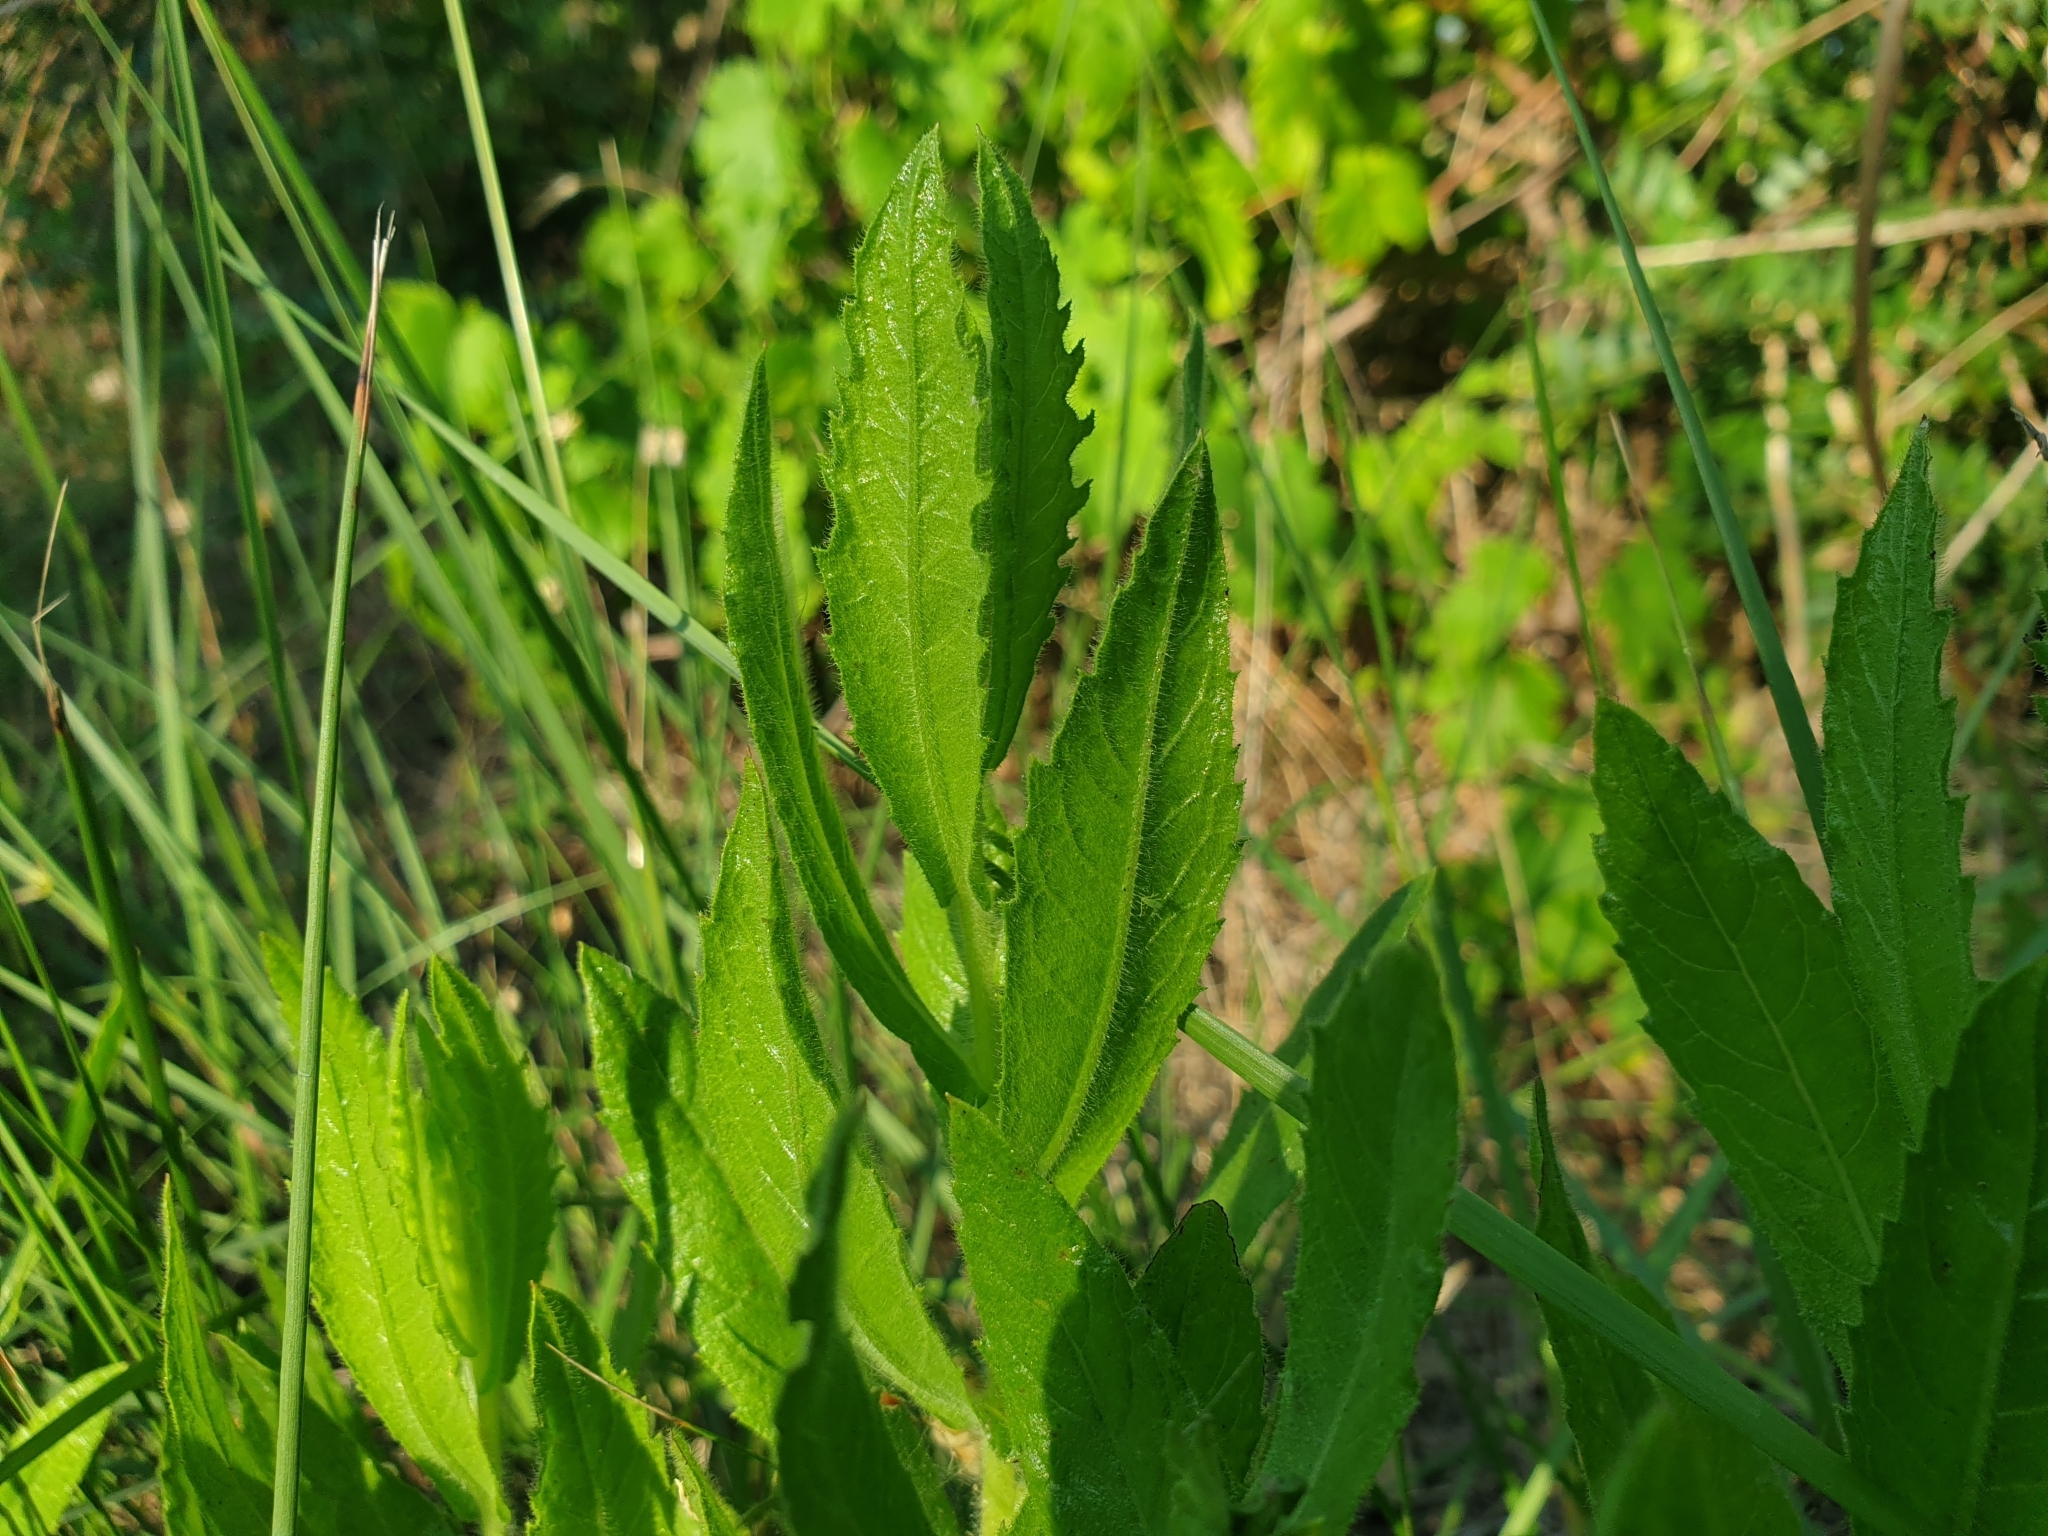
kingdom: Plantae
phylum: Tracheophyta
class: Magnoliopsida
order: Asterales
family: Asteraceae
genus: Dittrichia
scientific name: Dittrichia viscosa
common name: Woody fleabane
